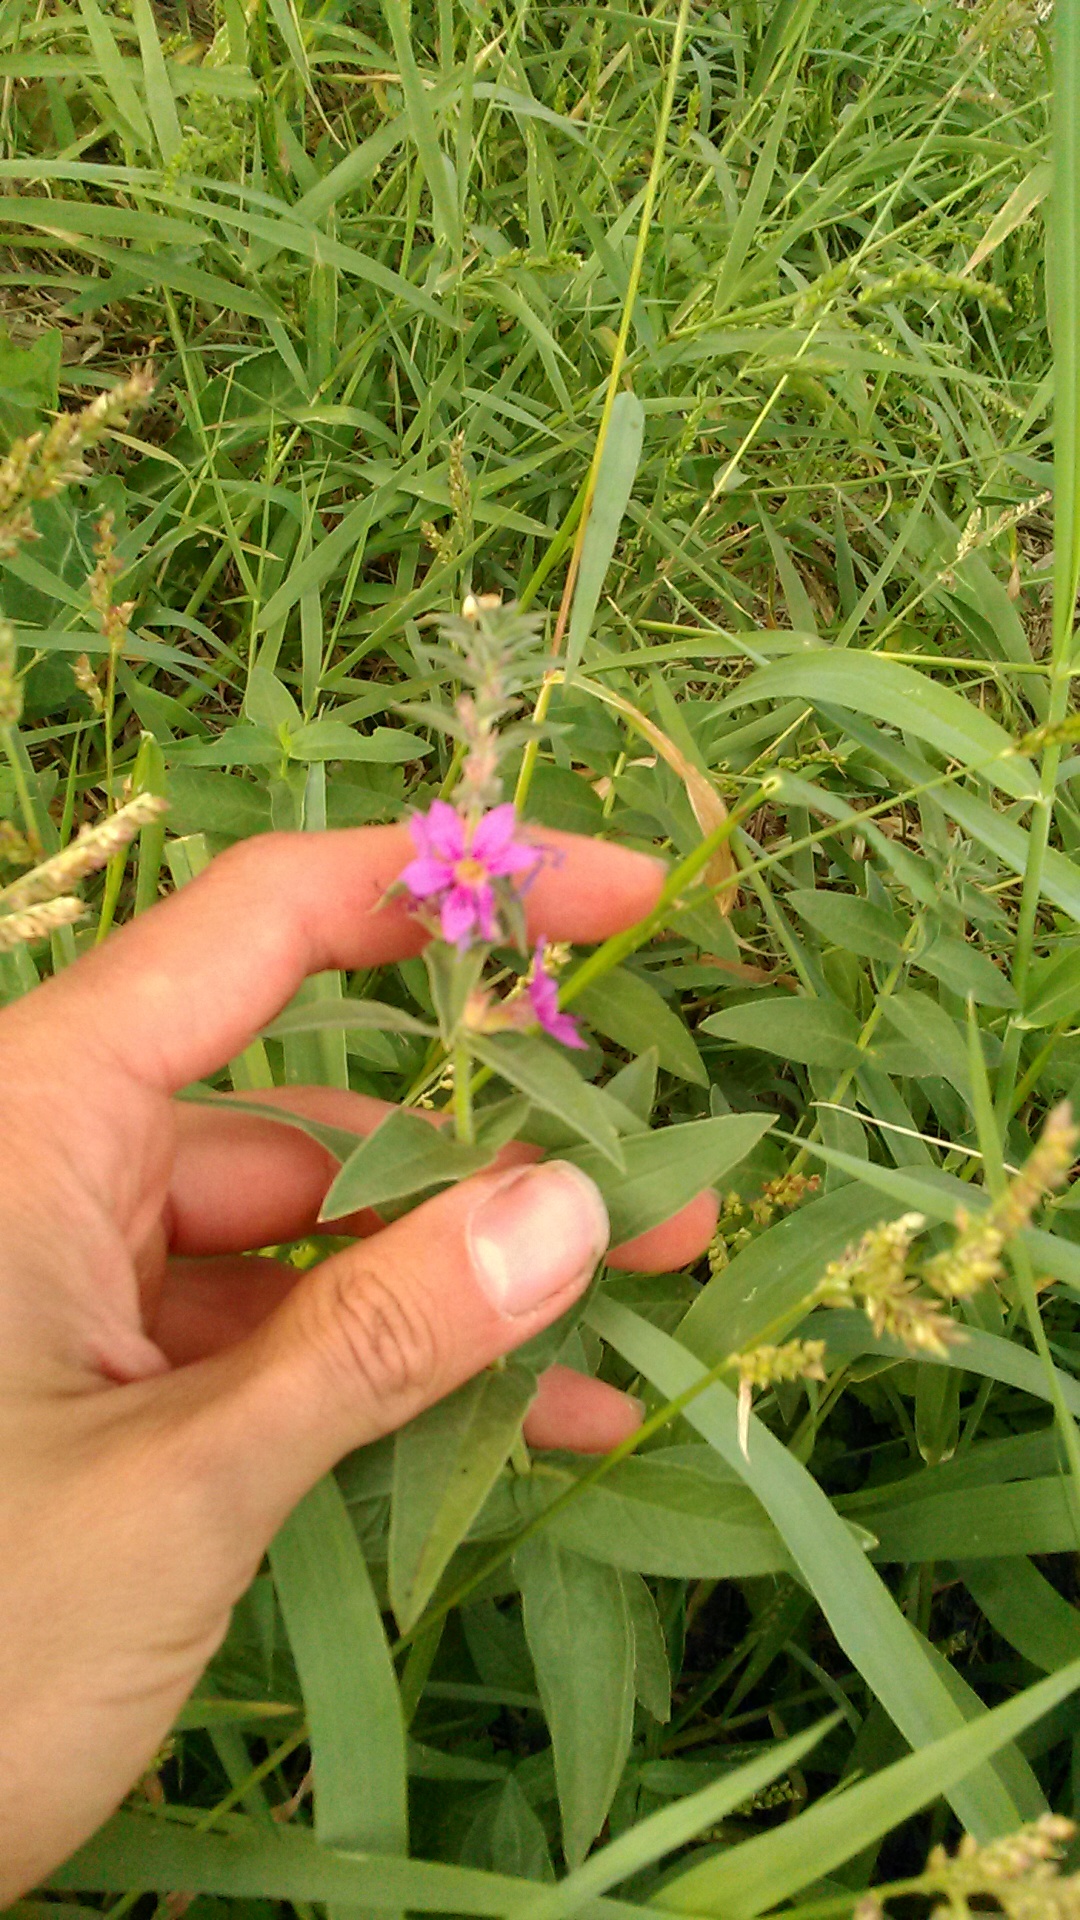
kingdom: Plantae
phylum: Tracheophyta
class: Magnoliopsida
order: Myrtales
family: Lythraceae
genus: Lythrum
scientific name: Lythrum salicaria
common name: Purple loosestrife
